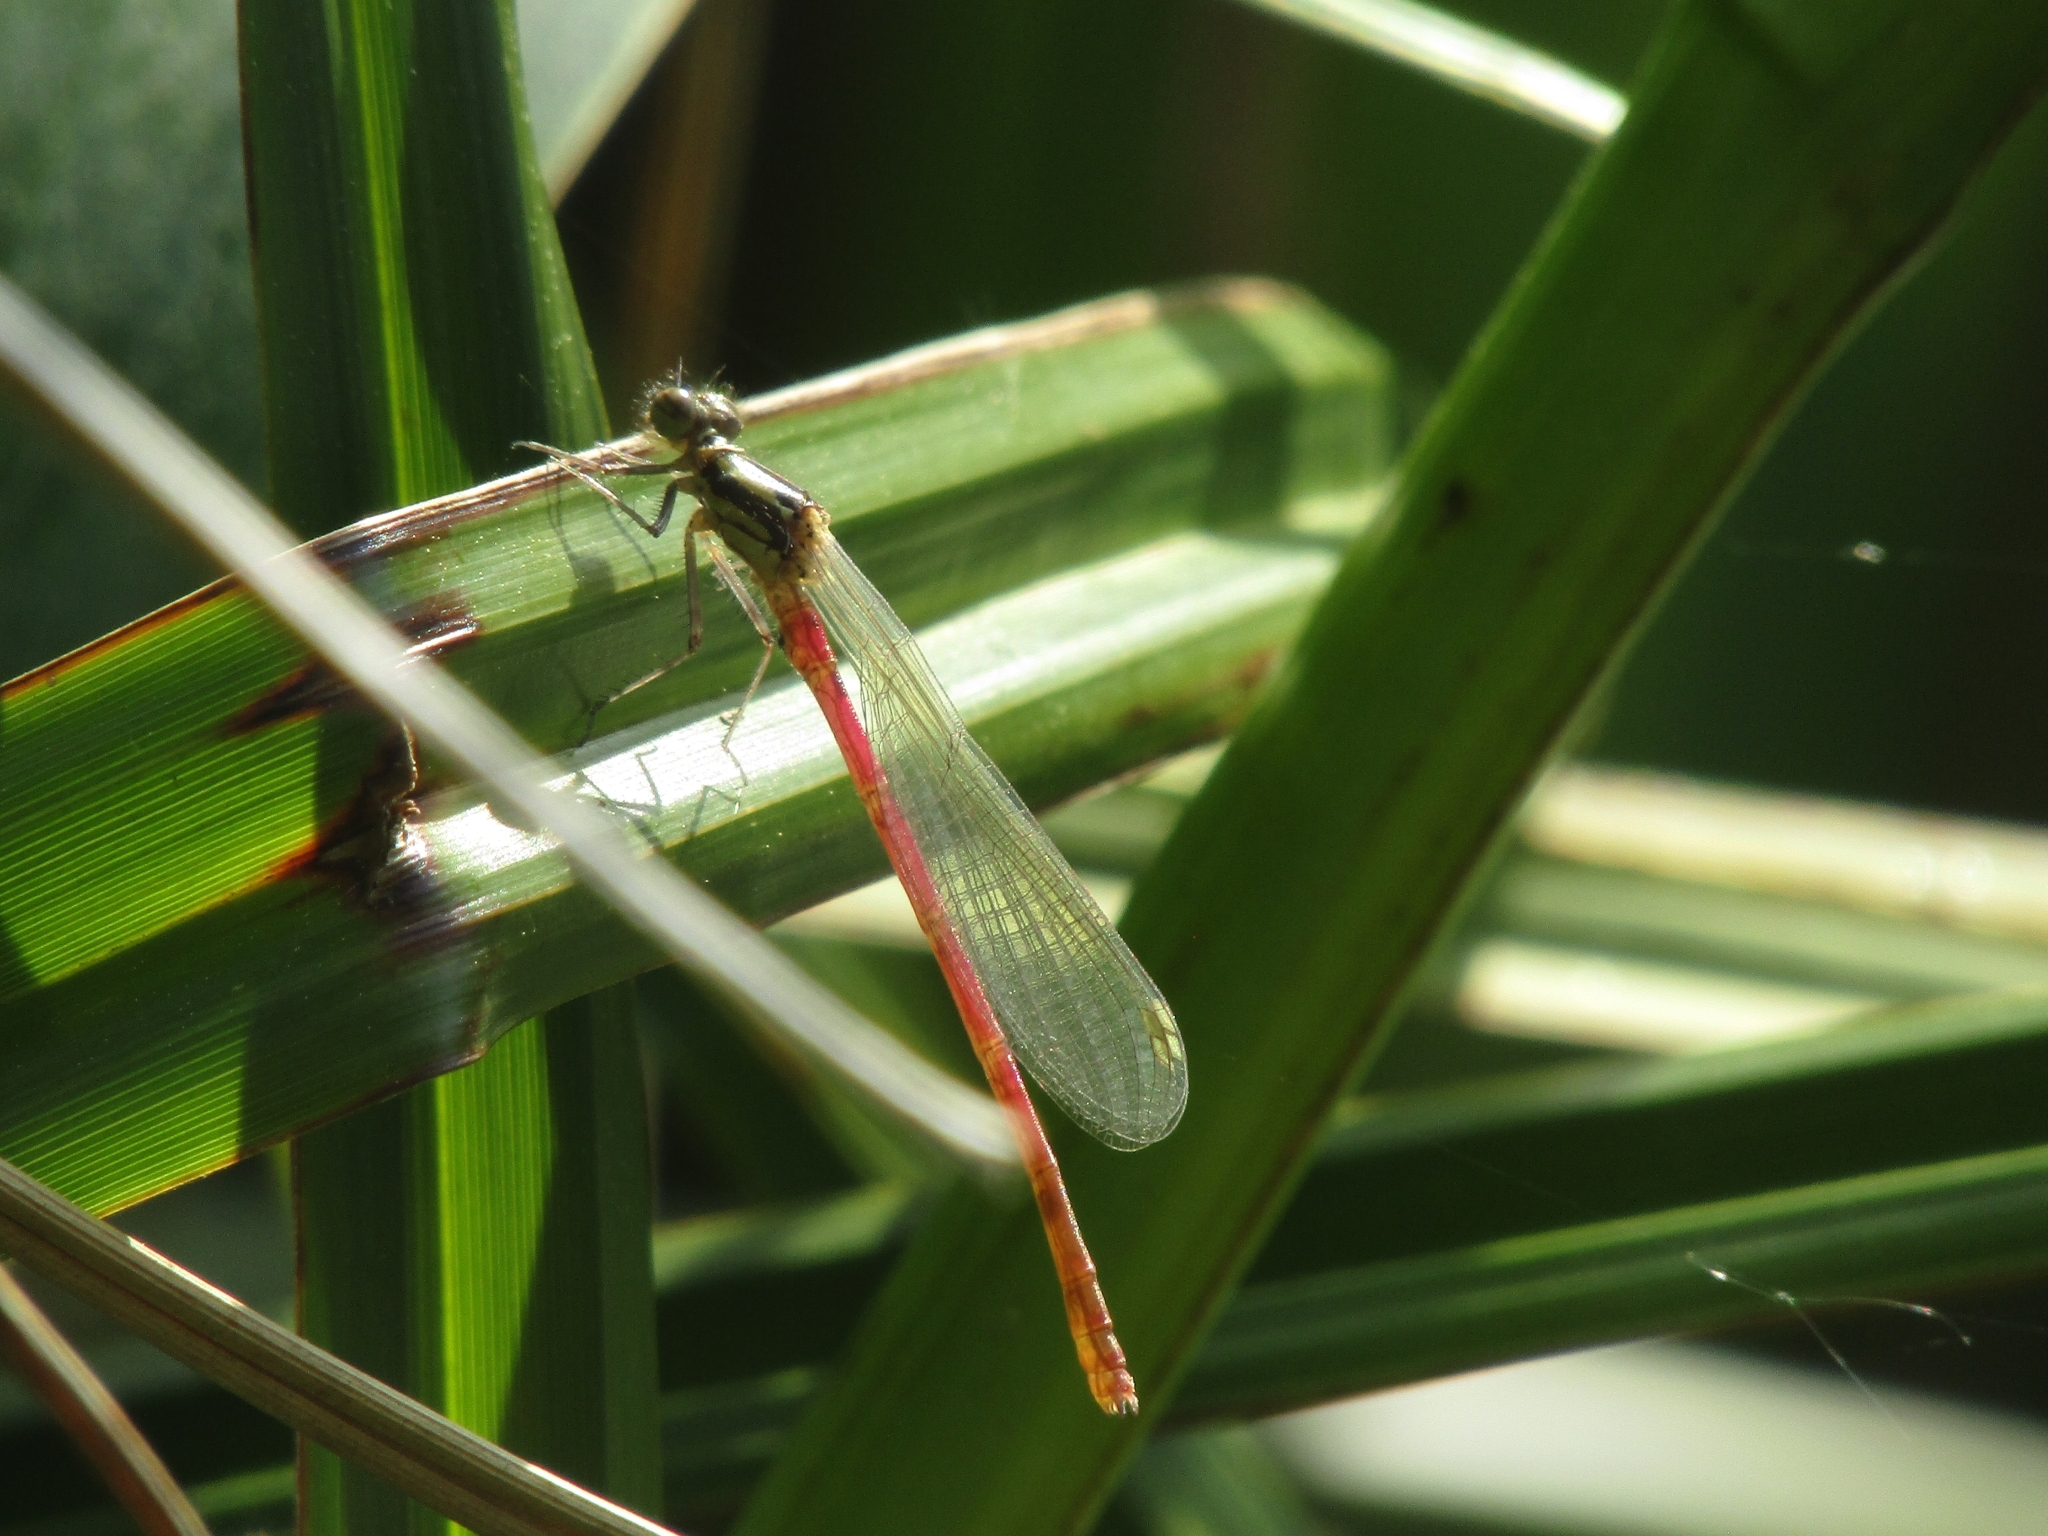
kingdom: Animalia
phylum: Arthropoda
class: Insecta
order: Odonata
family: Coenagrionidae
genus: Pyrrhosoma
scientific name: Pyrrhosoma nymphula
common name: Large red damsel
